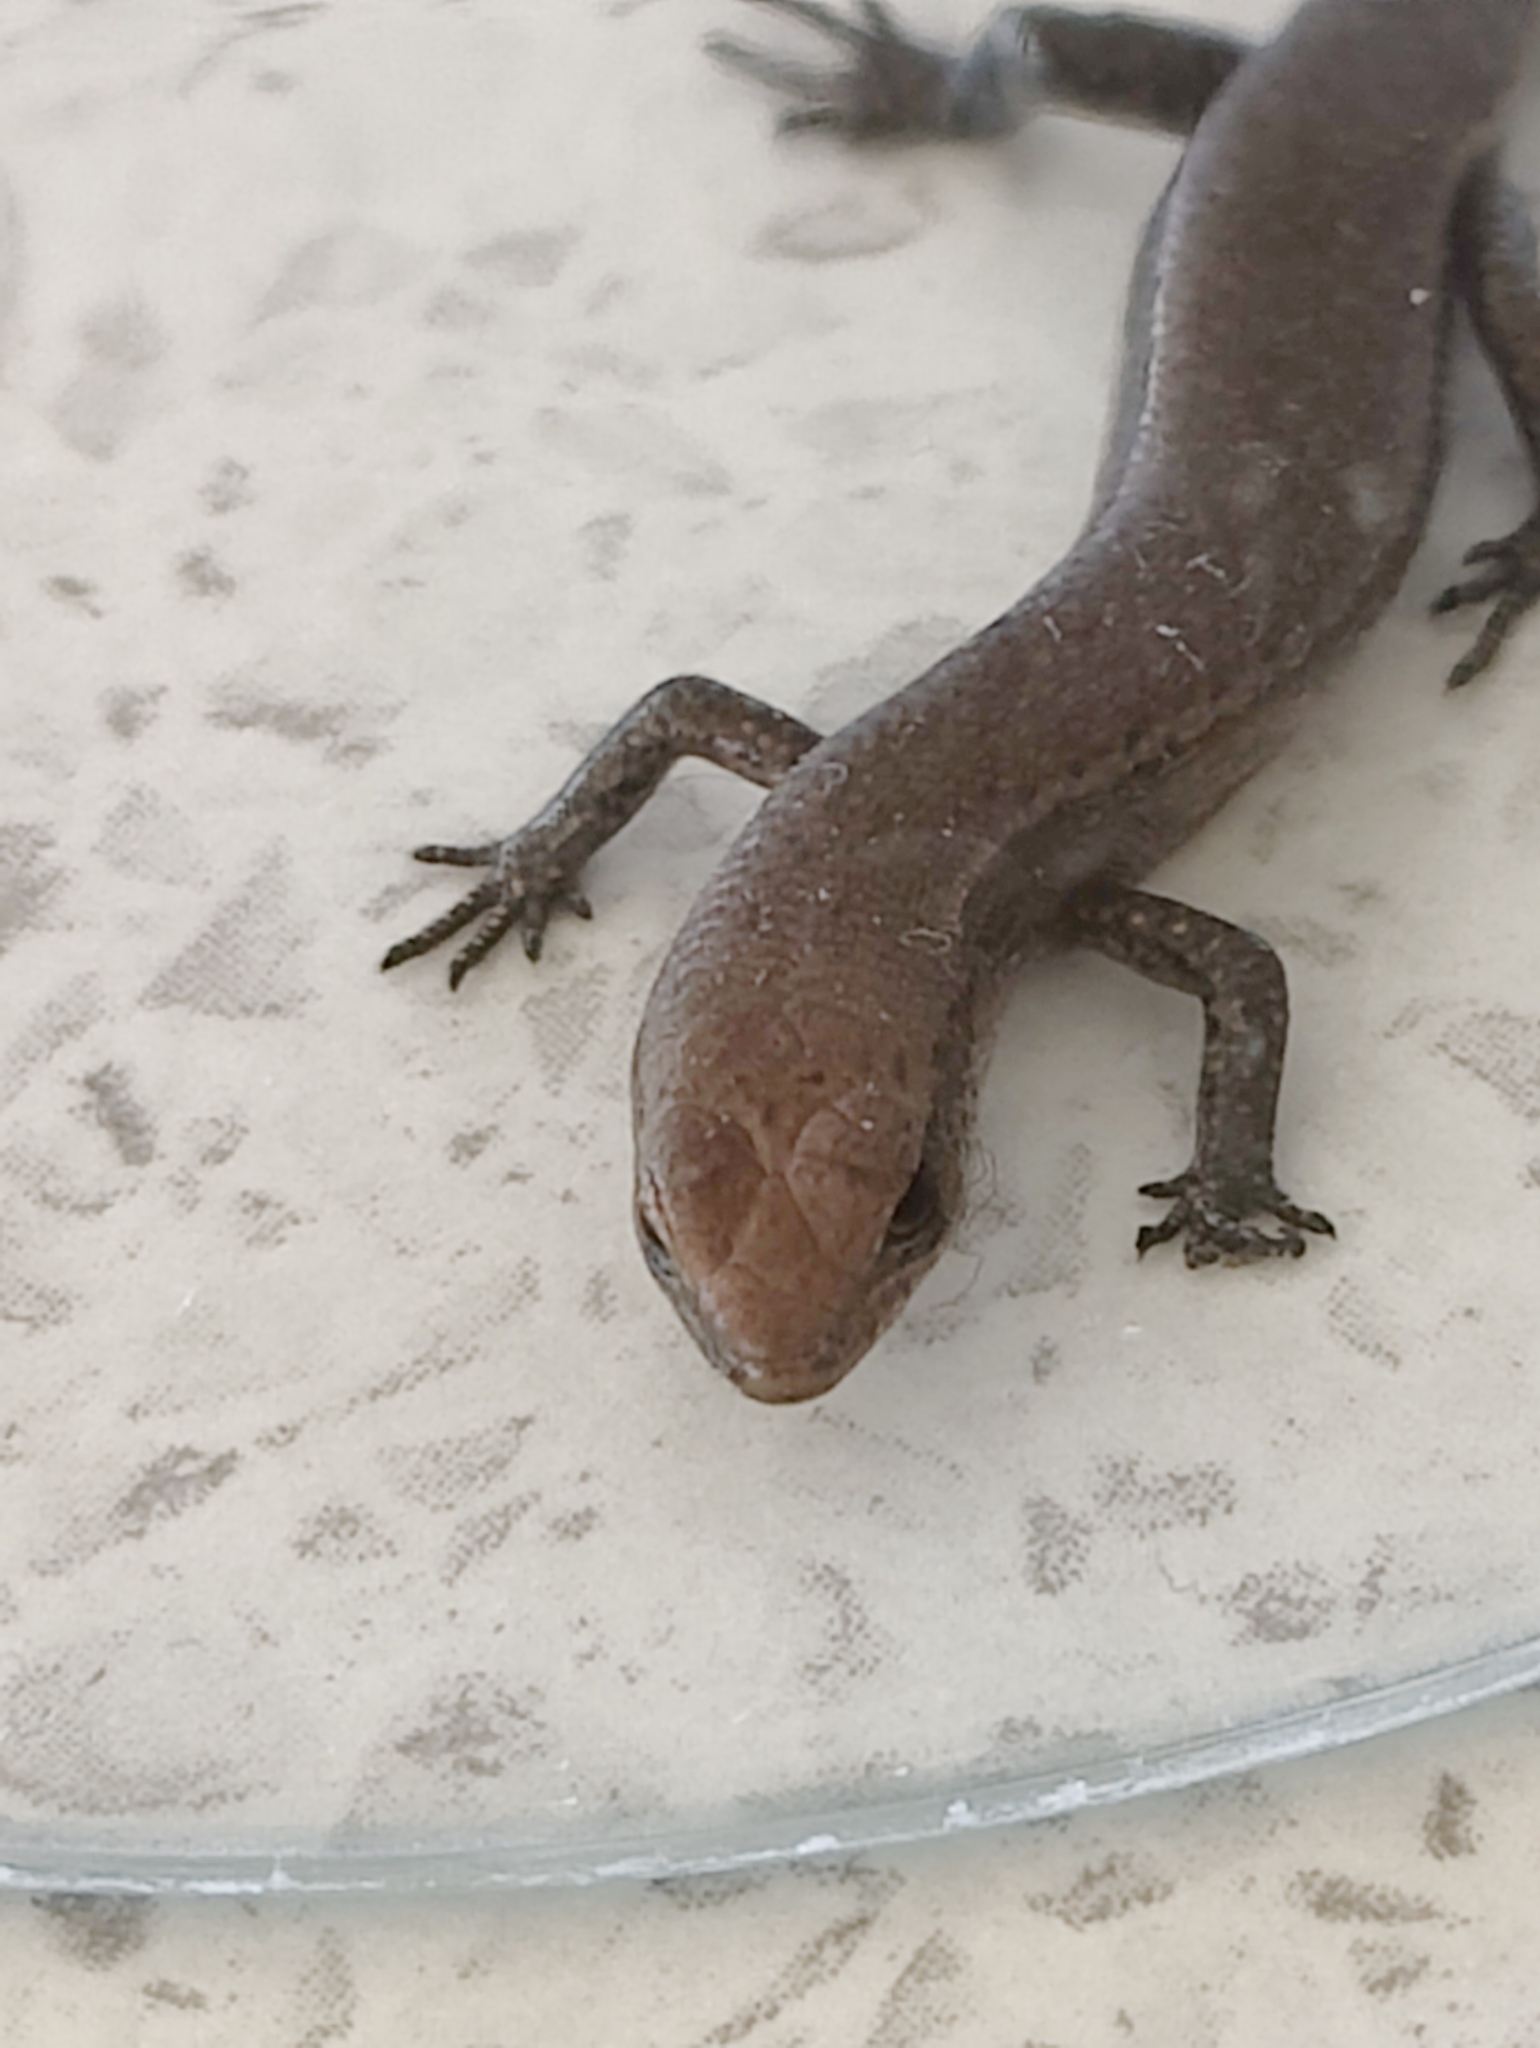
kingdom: Animalia
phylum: Chordata
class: Squamata
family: Scincidae
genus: Lampropholis
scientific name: Lampropholis delicata
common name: Plague skink
